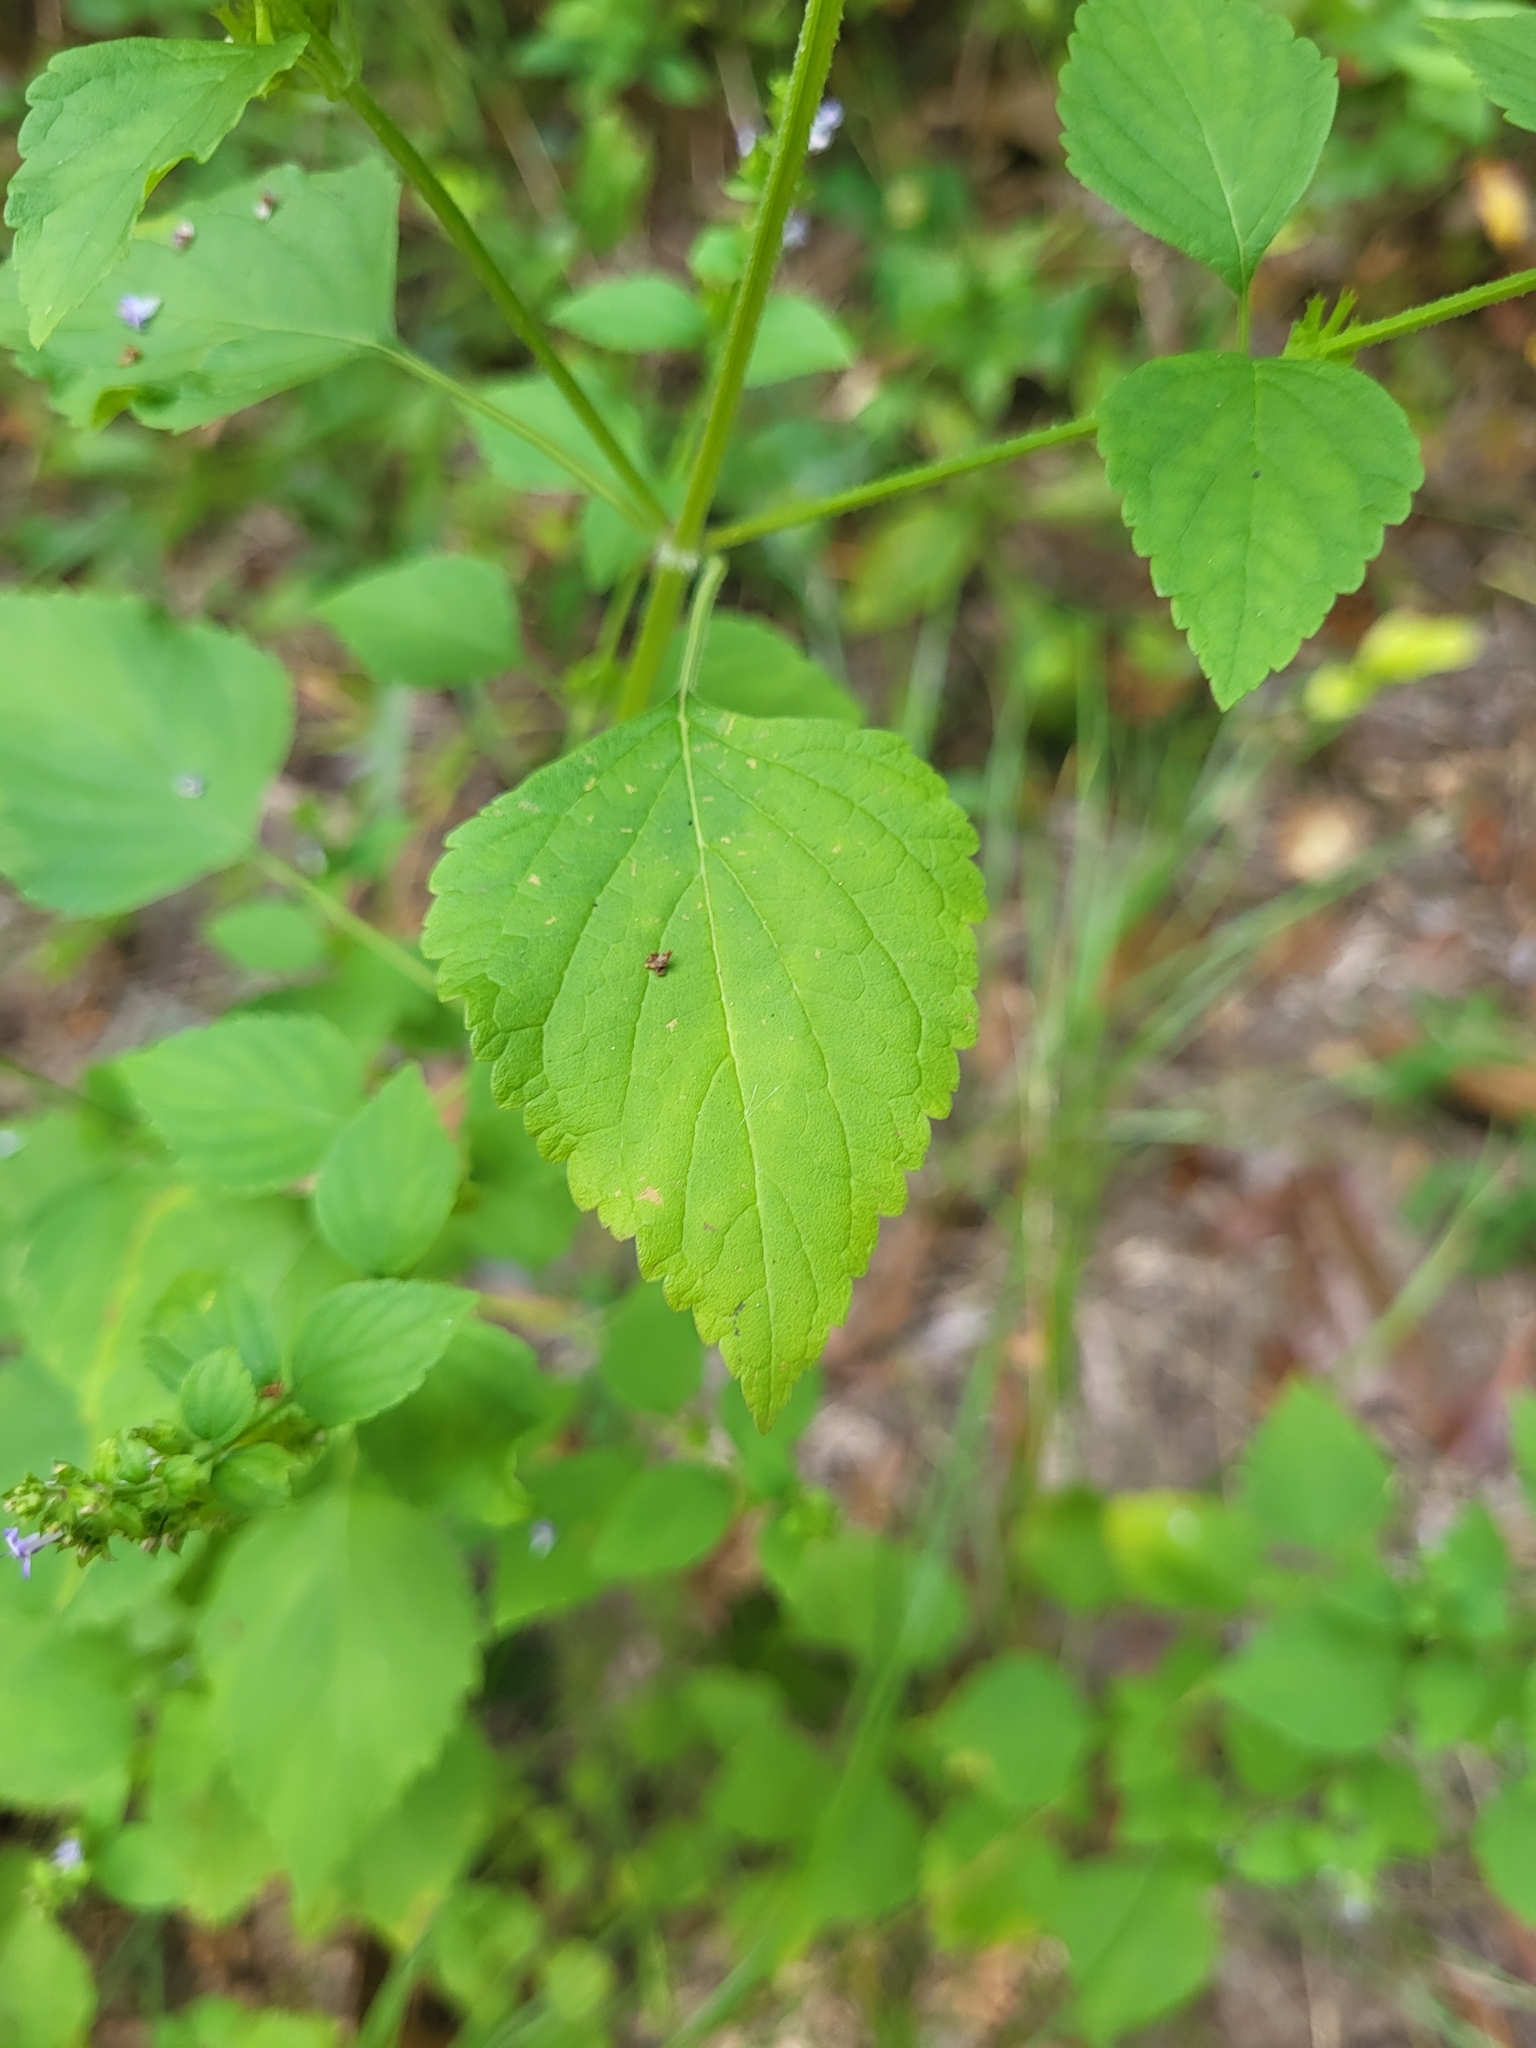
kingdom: Plantae
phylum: Tracheophyta
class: Magnoliopsida
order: Lamiales
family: Lamiaceae
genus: Cantinoa
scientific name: Cantinoa mutabilis
